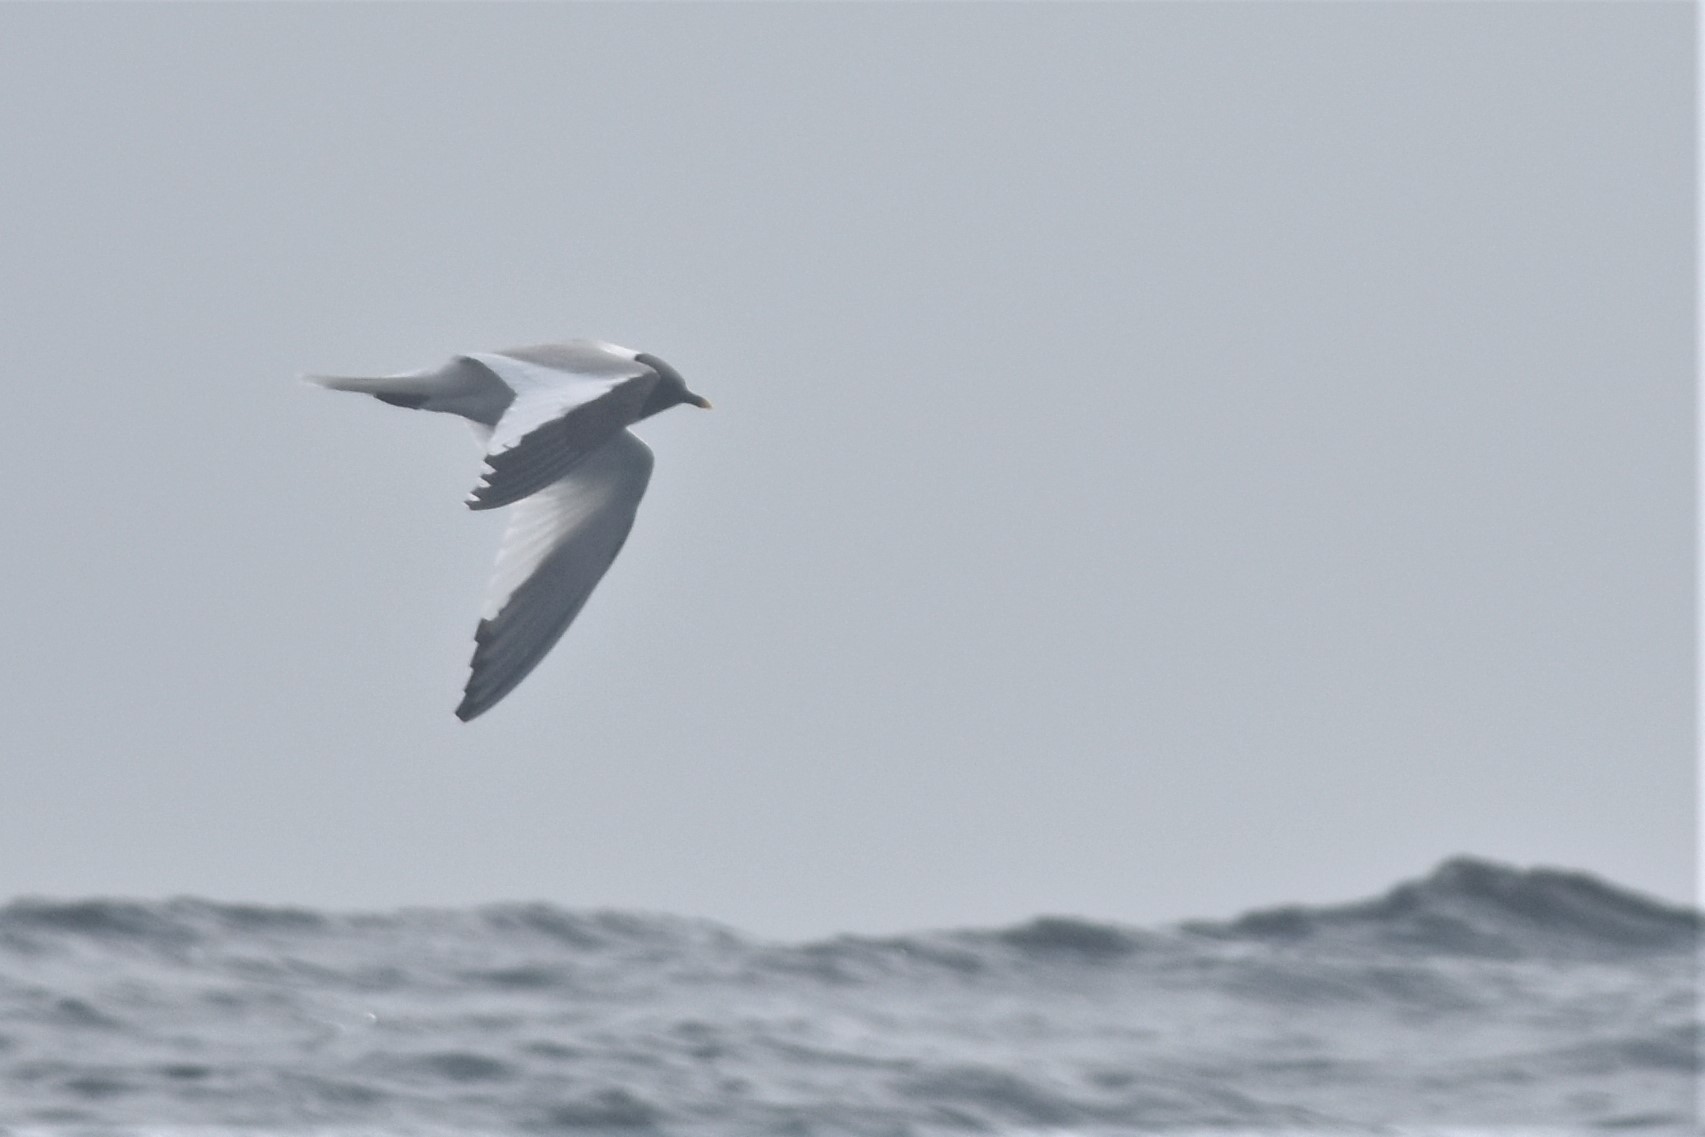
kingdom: Animalia
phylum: Chordata
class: Aves
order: Charadriiformes
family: Laridae
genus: Xema
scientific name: Xema sabini
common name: Sabine's gull
